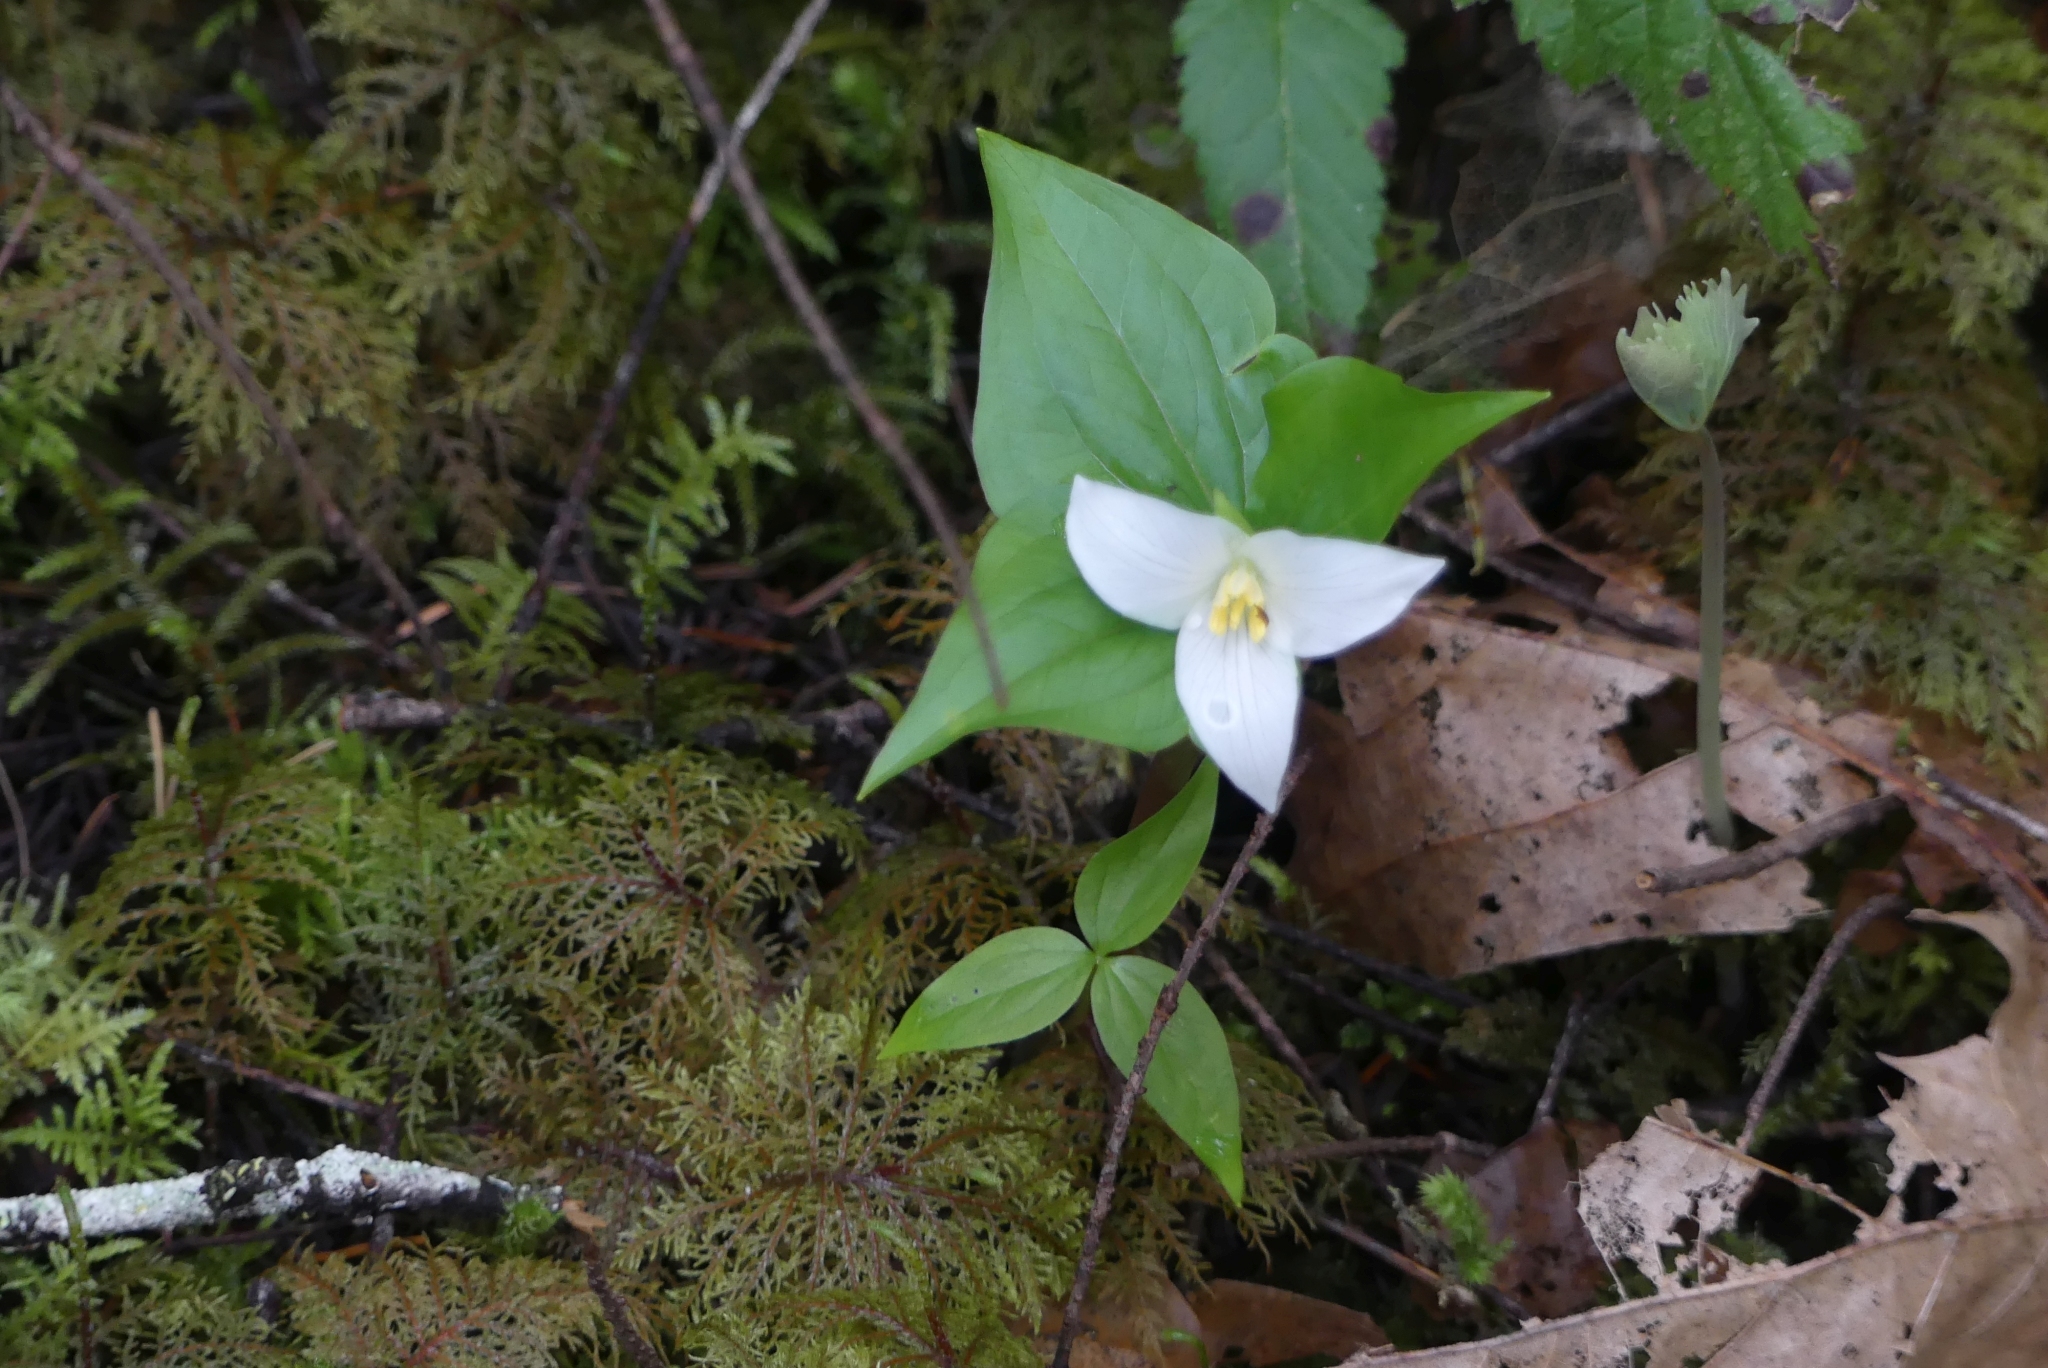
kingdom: Plantae
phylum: Tracheophyta
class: Liliopsida
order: Liliales
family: Melanthiaceae
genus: Trillium
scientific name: Trillium ovatum
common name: Pacific trillium
